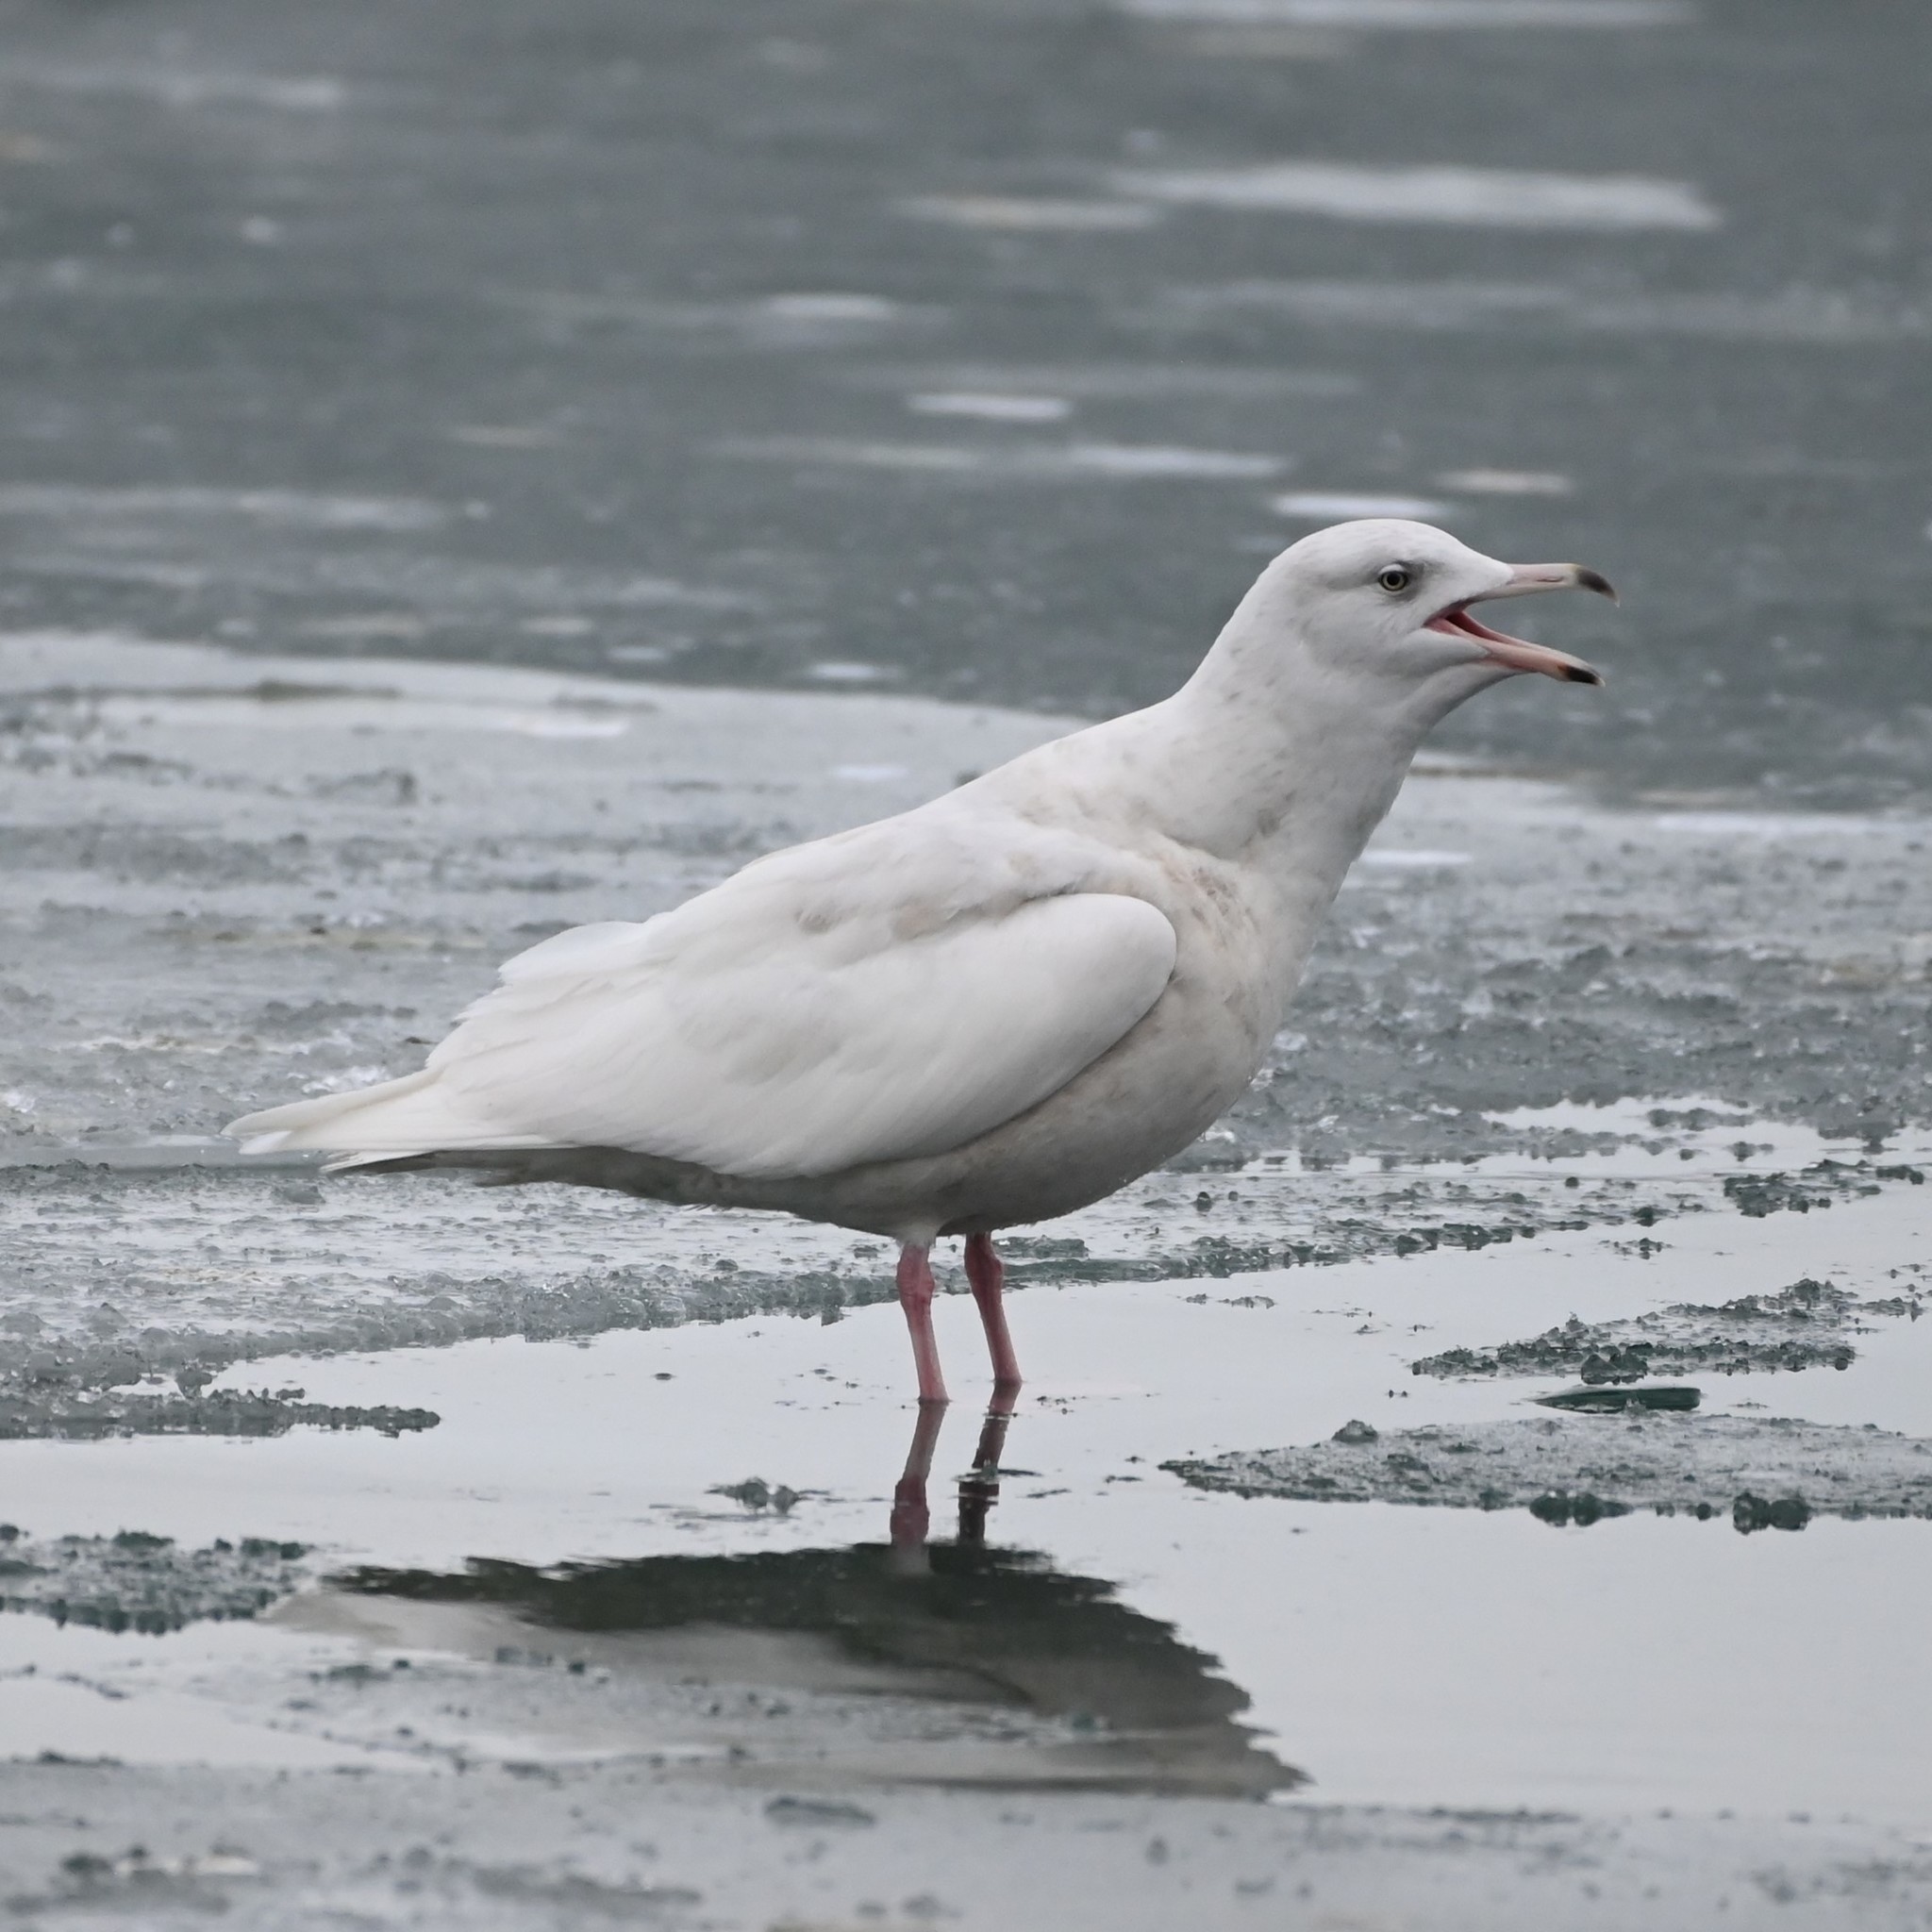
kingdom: Animalia
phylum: Chordata
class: Aves
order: Charadriiformes
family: Laridae
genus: Larus
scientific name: Larus hyperboreus
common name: Glaucous gull
